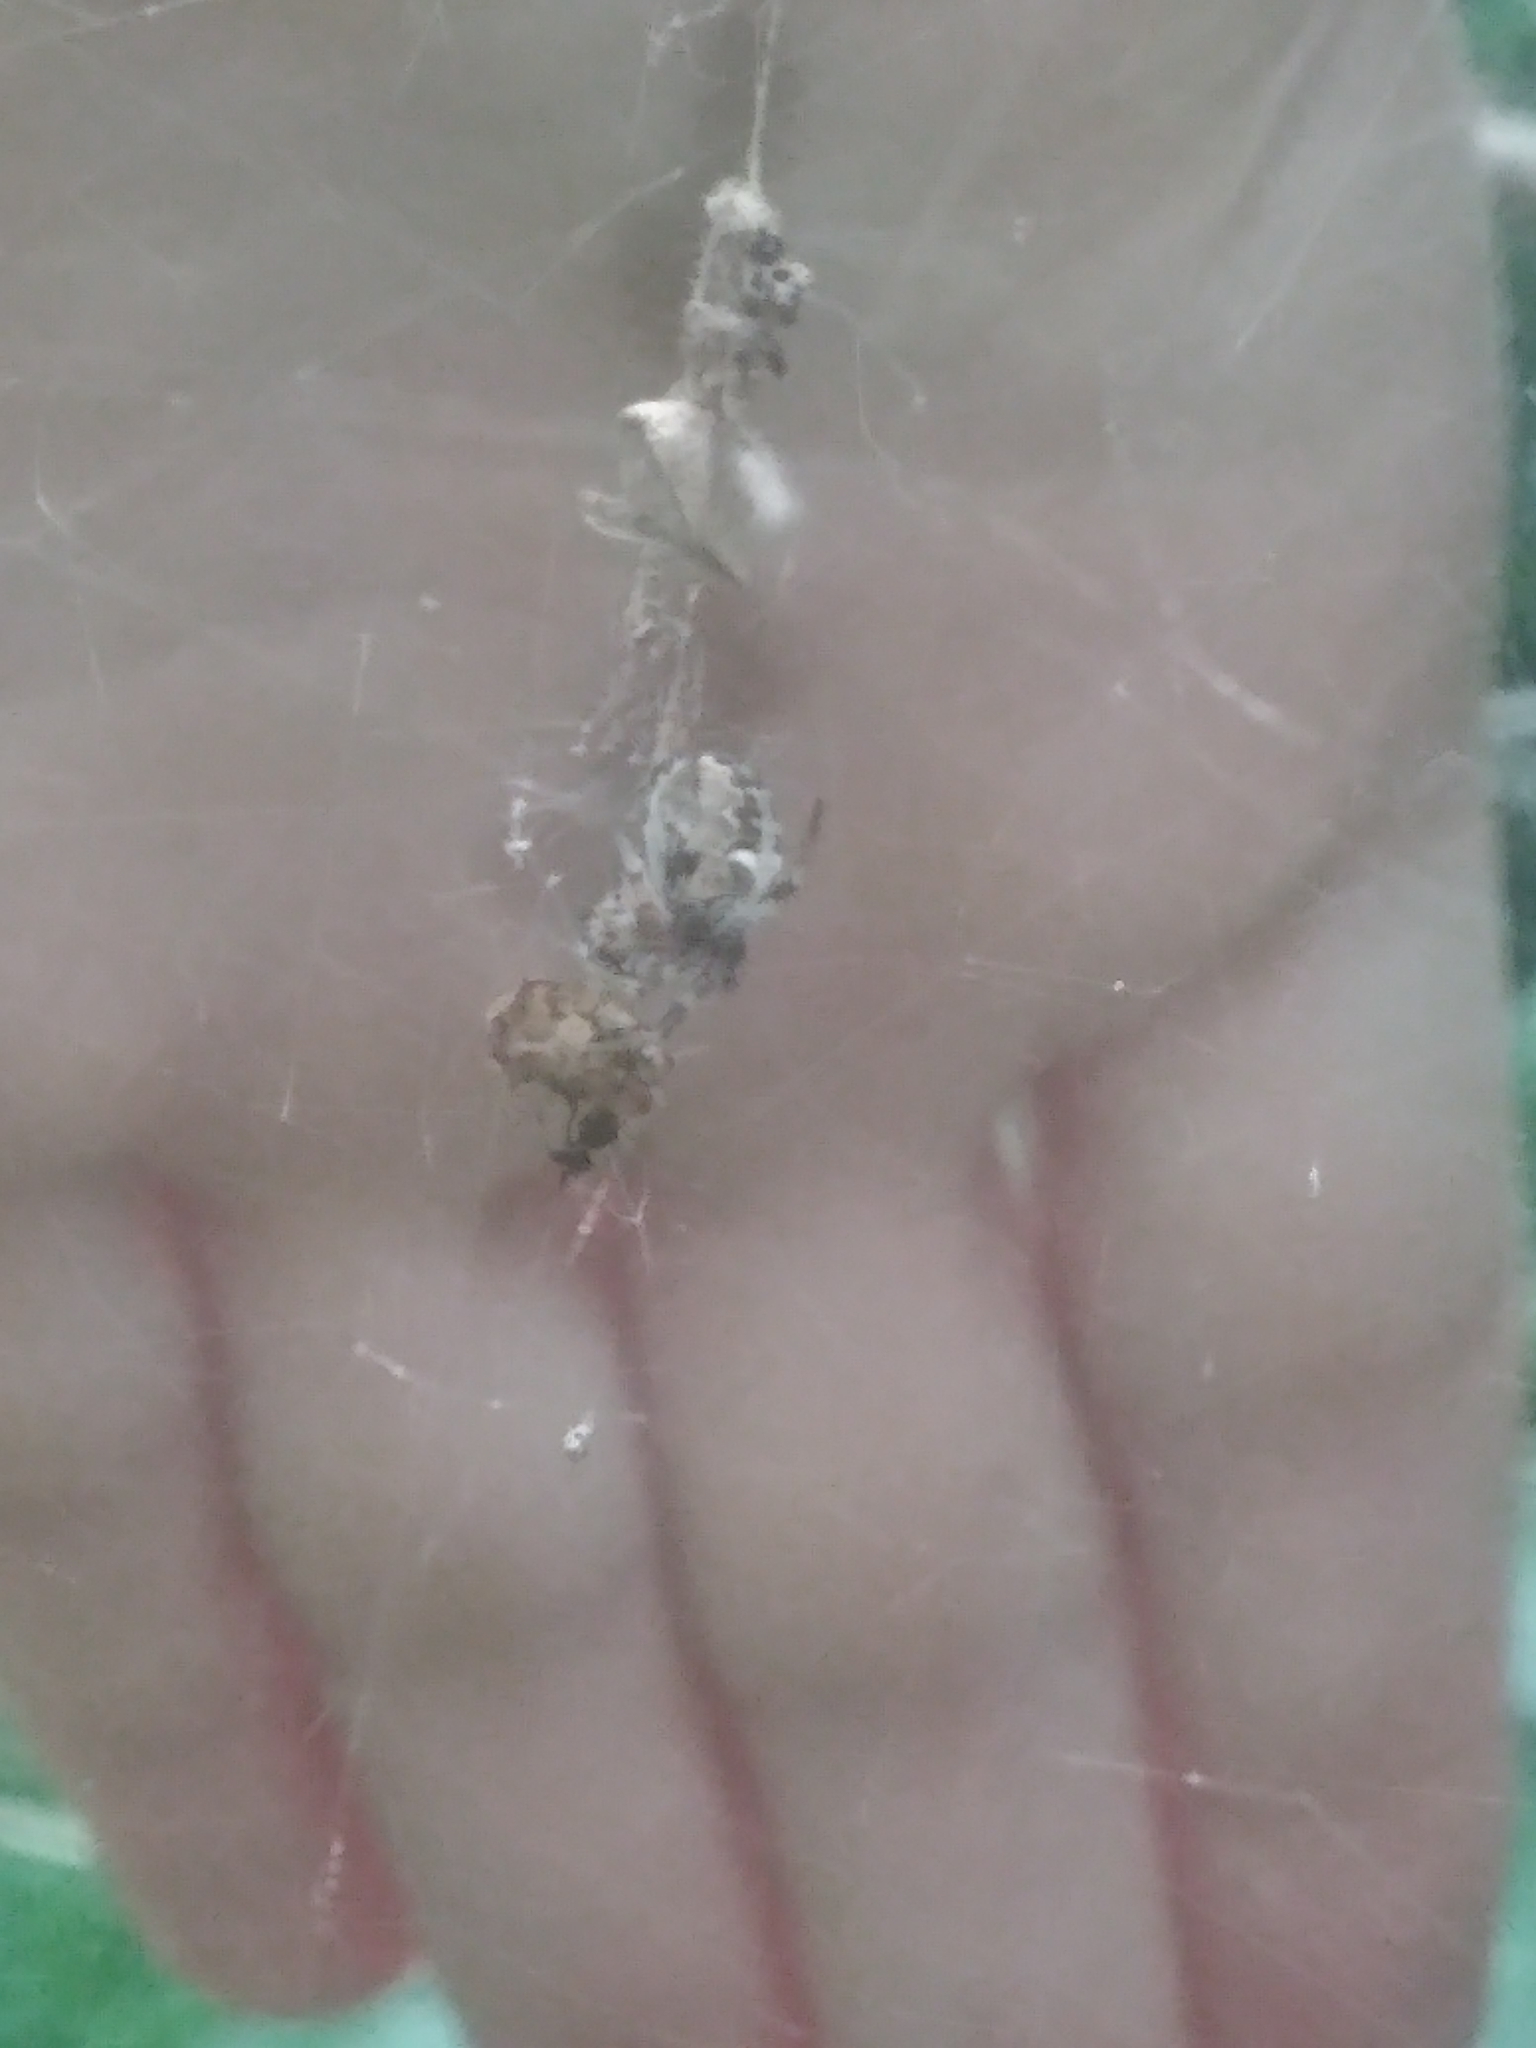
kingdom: Animalia
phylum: Arthropoda
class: Arachnida
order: Araneae
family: Araneidae
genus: Metepeira
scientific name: Metepeira labyrinthea
